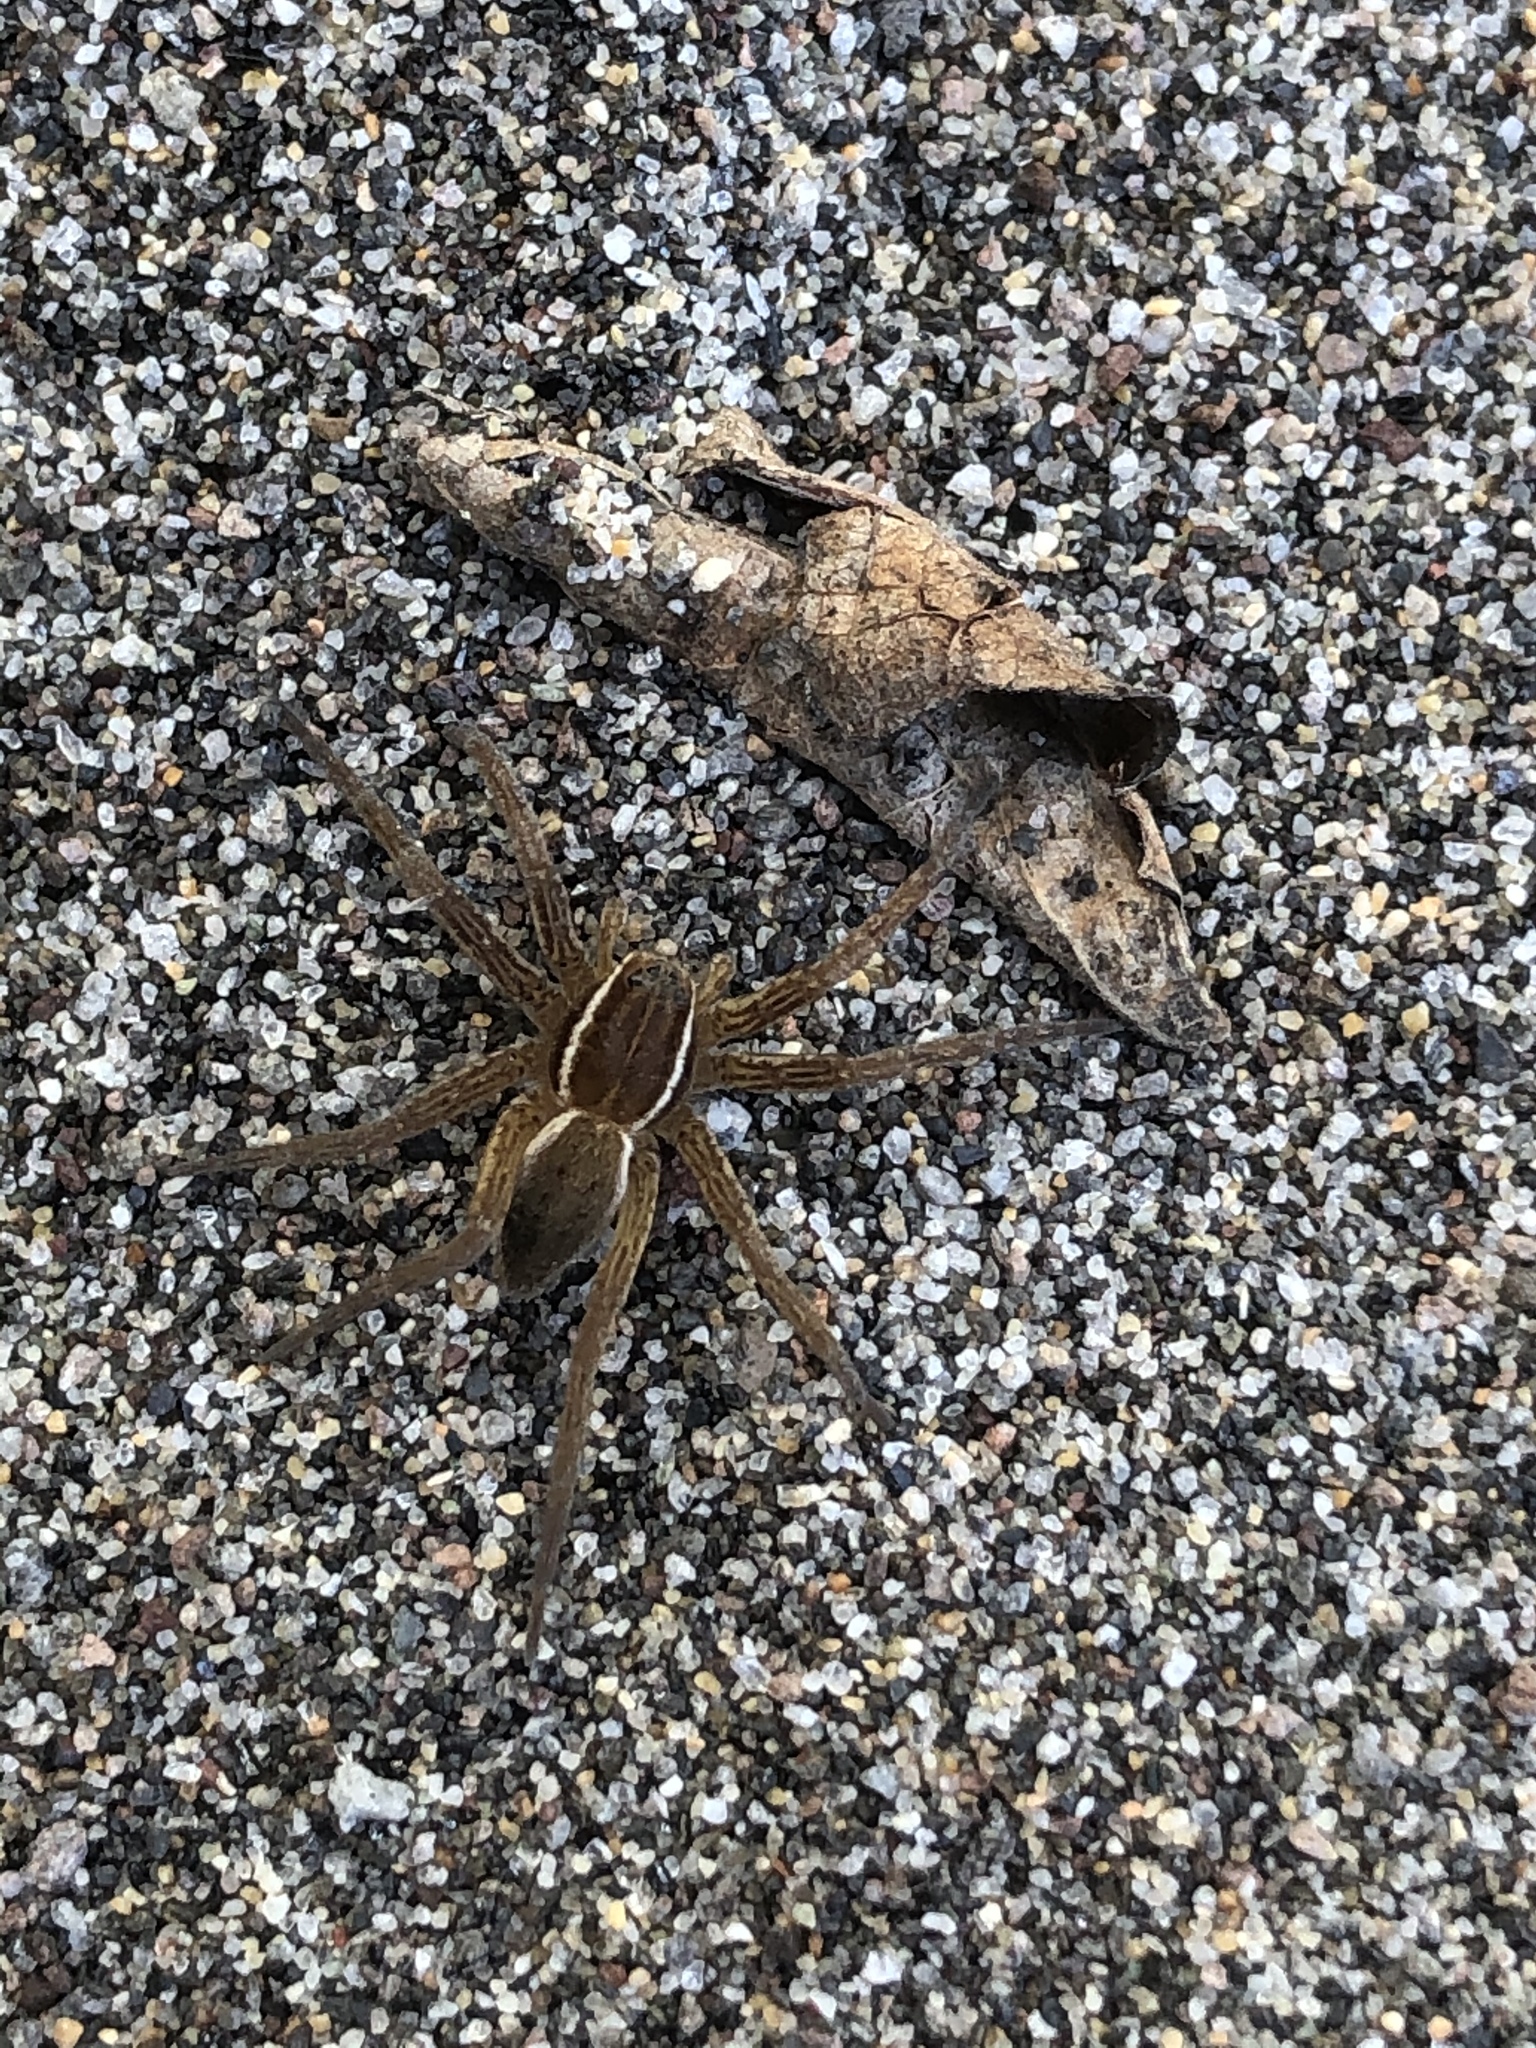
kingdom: Animalia
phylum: Arthropoda
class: Arachnida
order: Araneae
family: Pisauridae
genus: Dolomedes
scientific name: Dolomedes triton
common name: Six-spotted fishing spider
